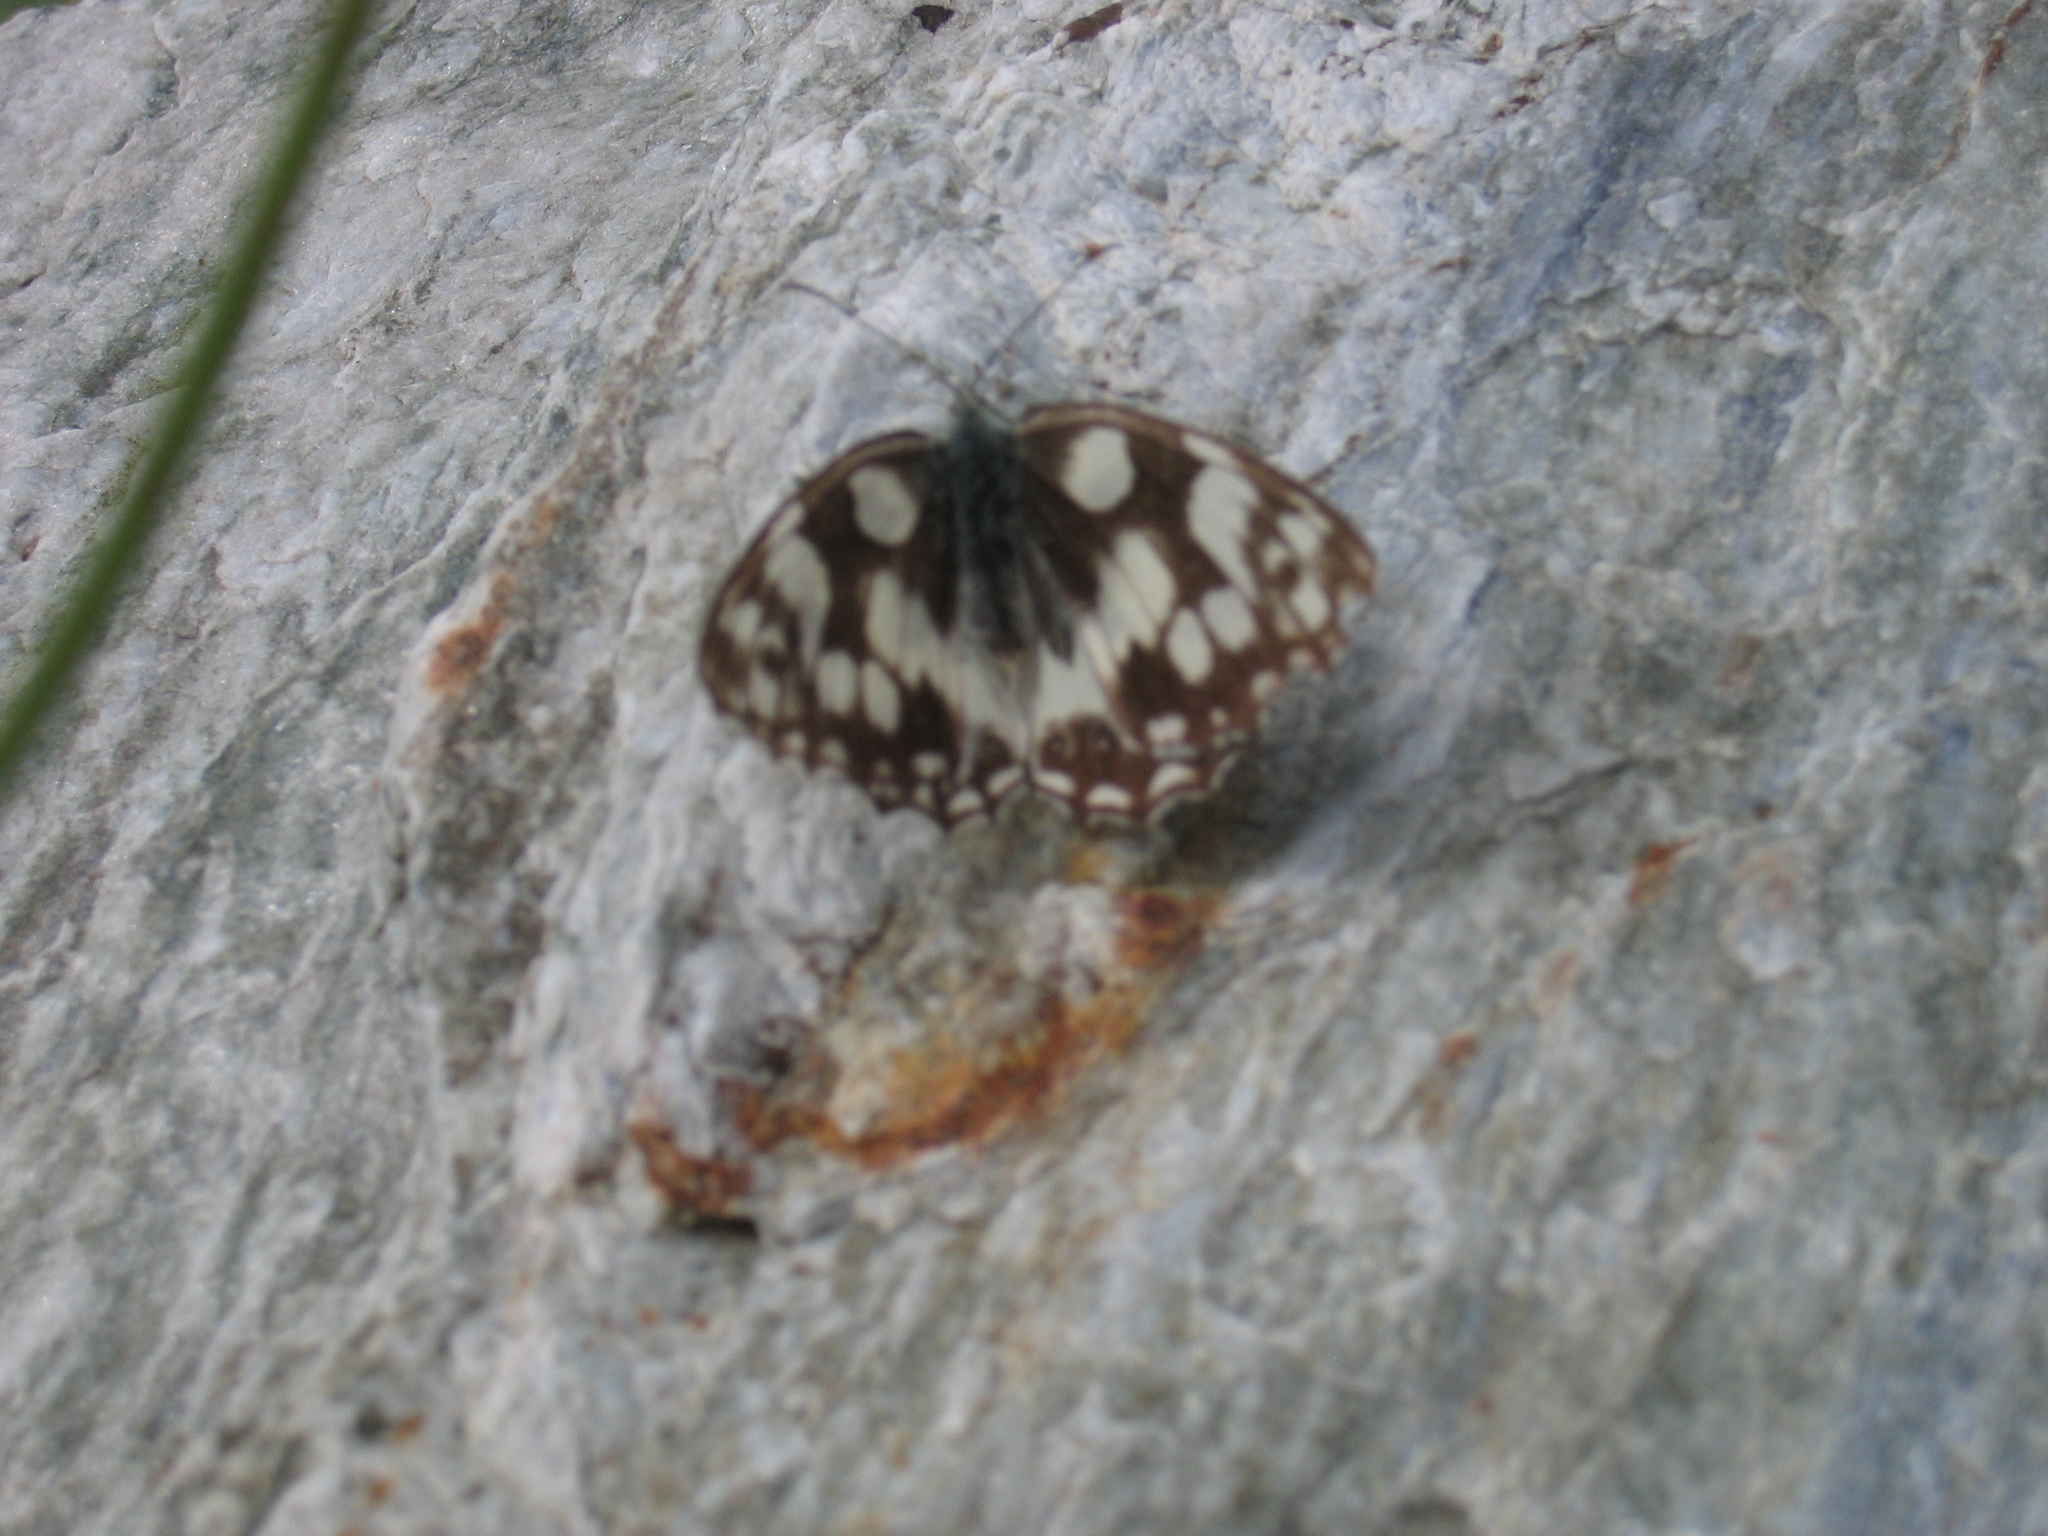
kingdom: Animalia
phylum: Arthropoda
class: Insecta
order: Lepidoptera
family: Nymphalidae
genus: Melanargia
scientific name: Melanargia galathea
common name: Marbled white
